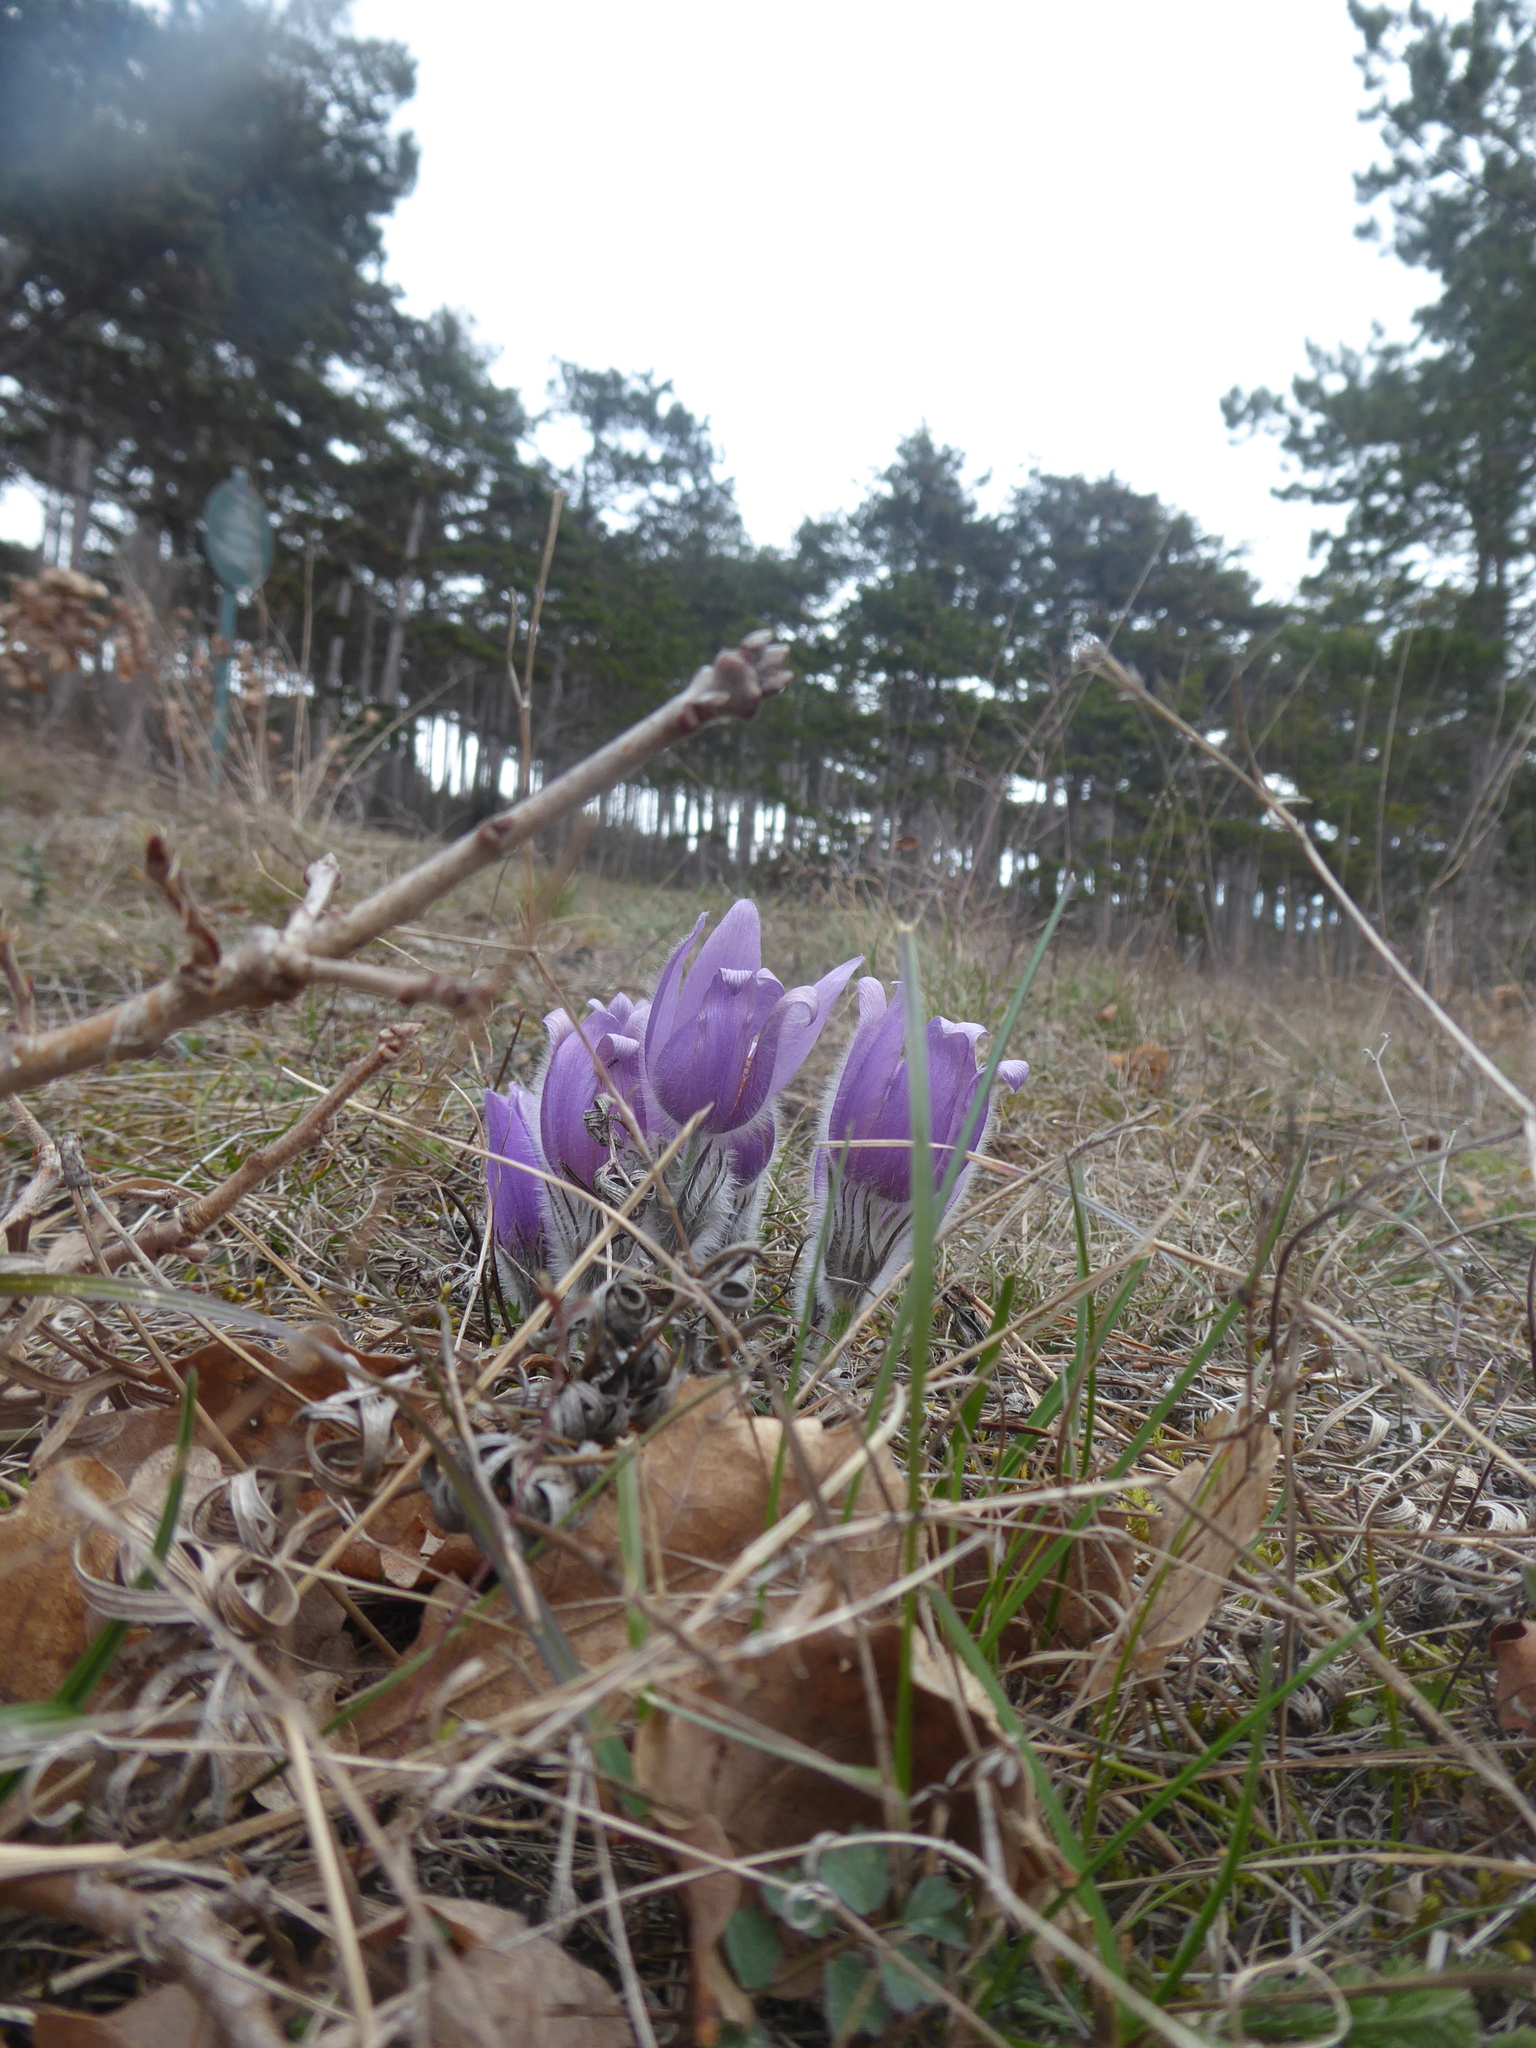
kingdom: Plantae
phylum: Tracheophyta
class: Magnoliopsida
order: Ranunculales
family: Ranunculaceae
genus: Pulsatilla
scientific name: Pulsatilla grandis
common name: Greater pasque flower
